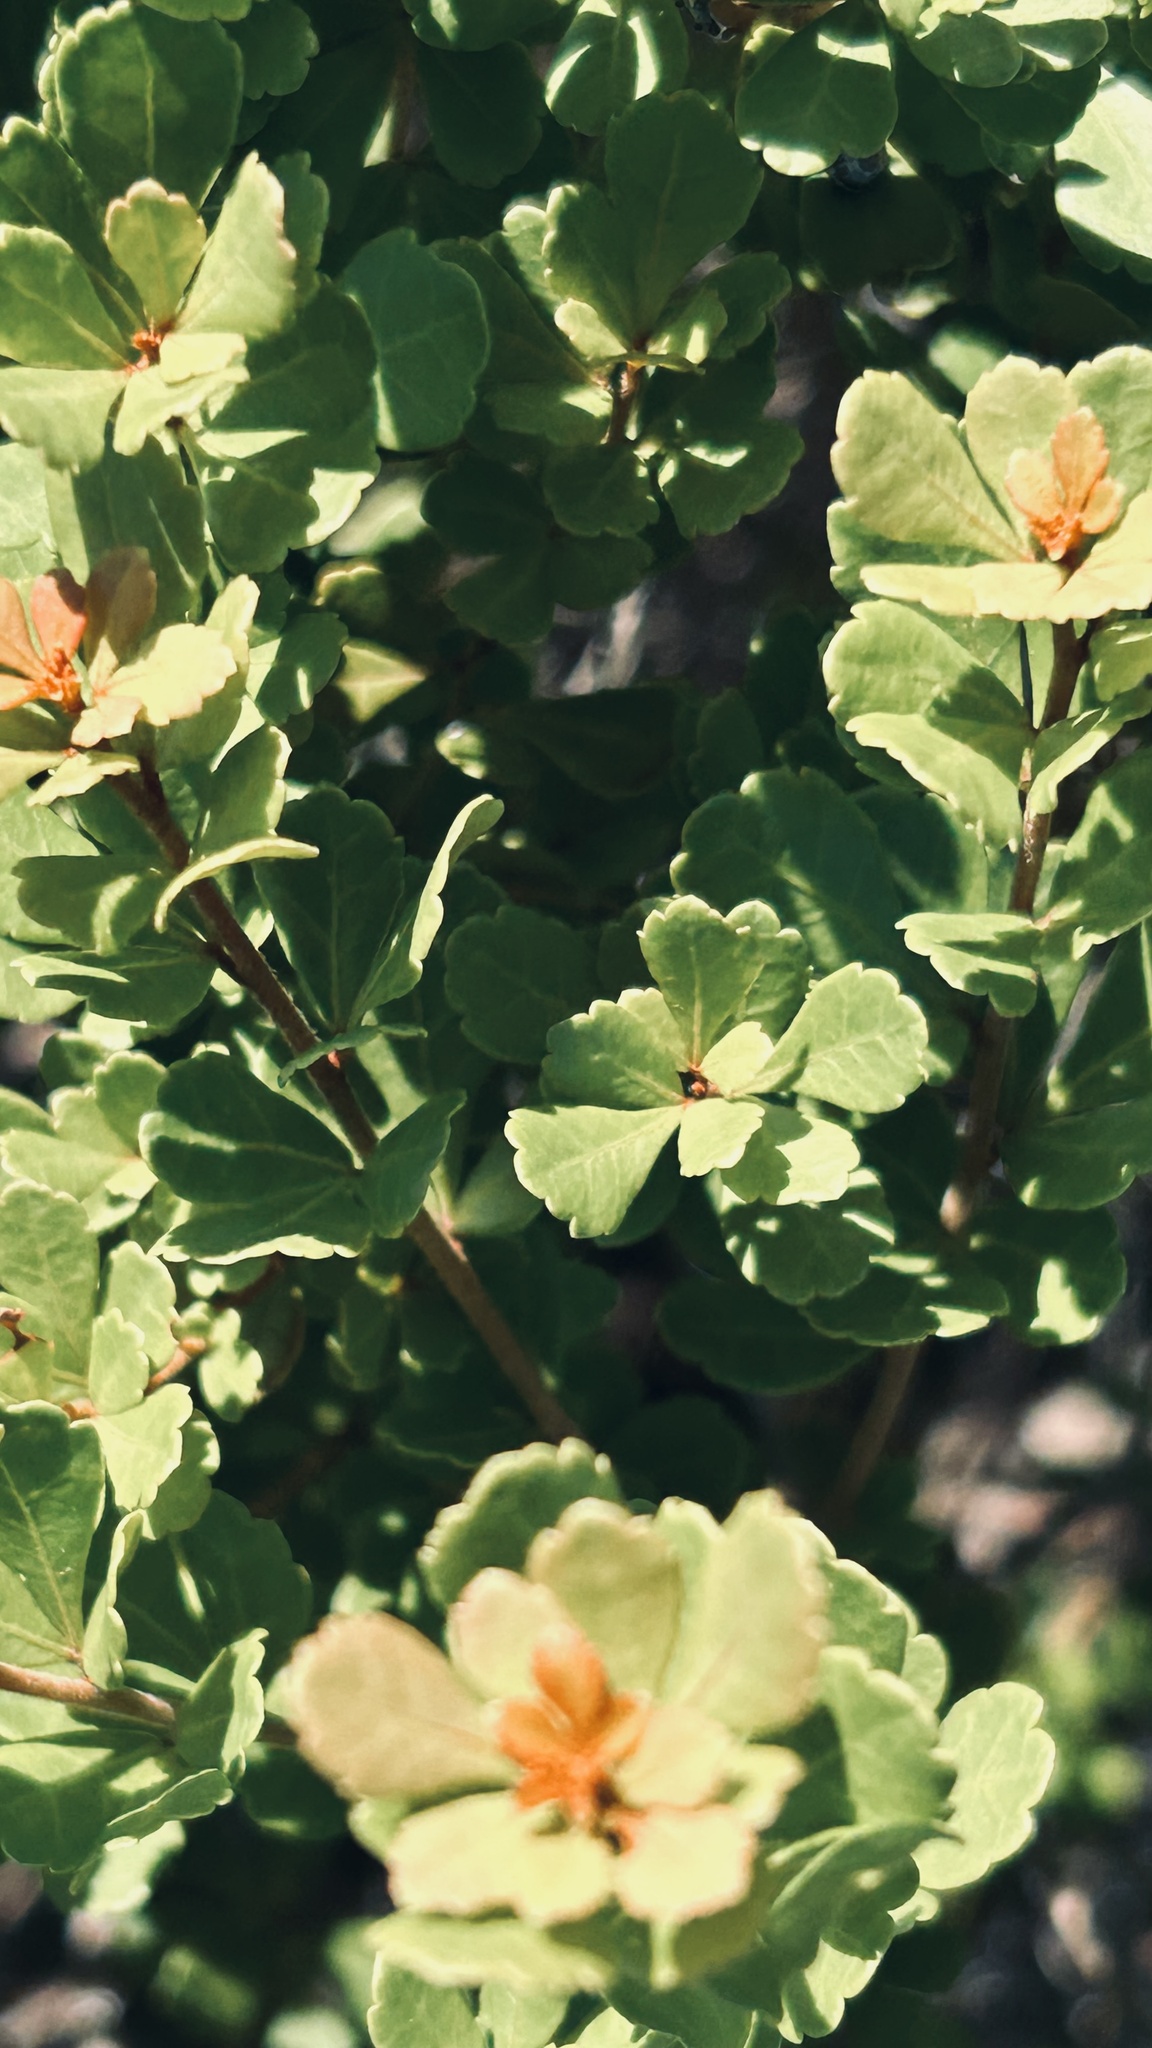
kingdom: Plantae
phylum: Tracheophyta
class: Magnoliopsida
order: Sapindales
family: Anacardiaceae
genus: Searsia
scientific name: Searsia crenata
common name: Crowberry
